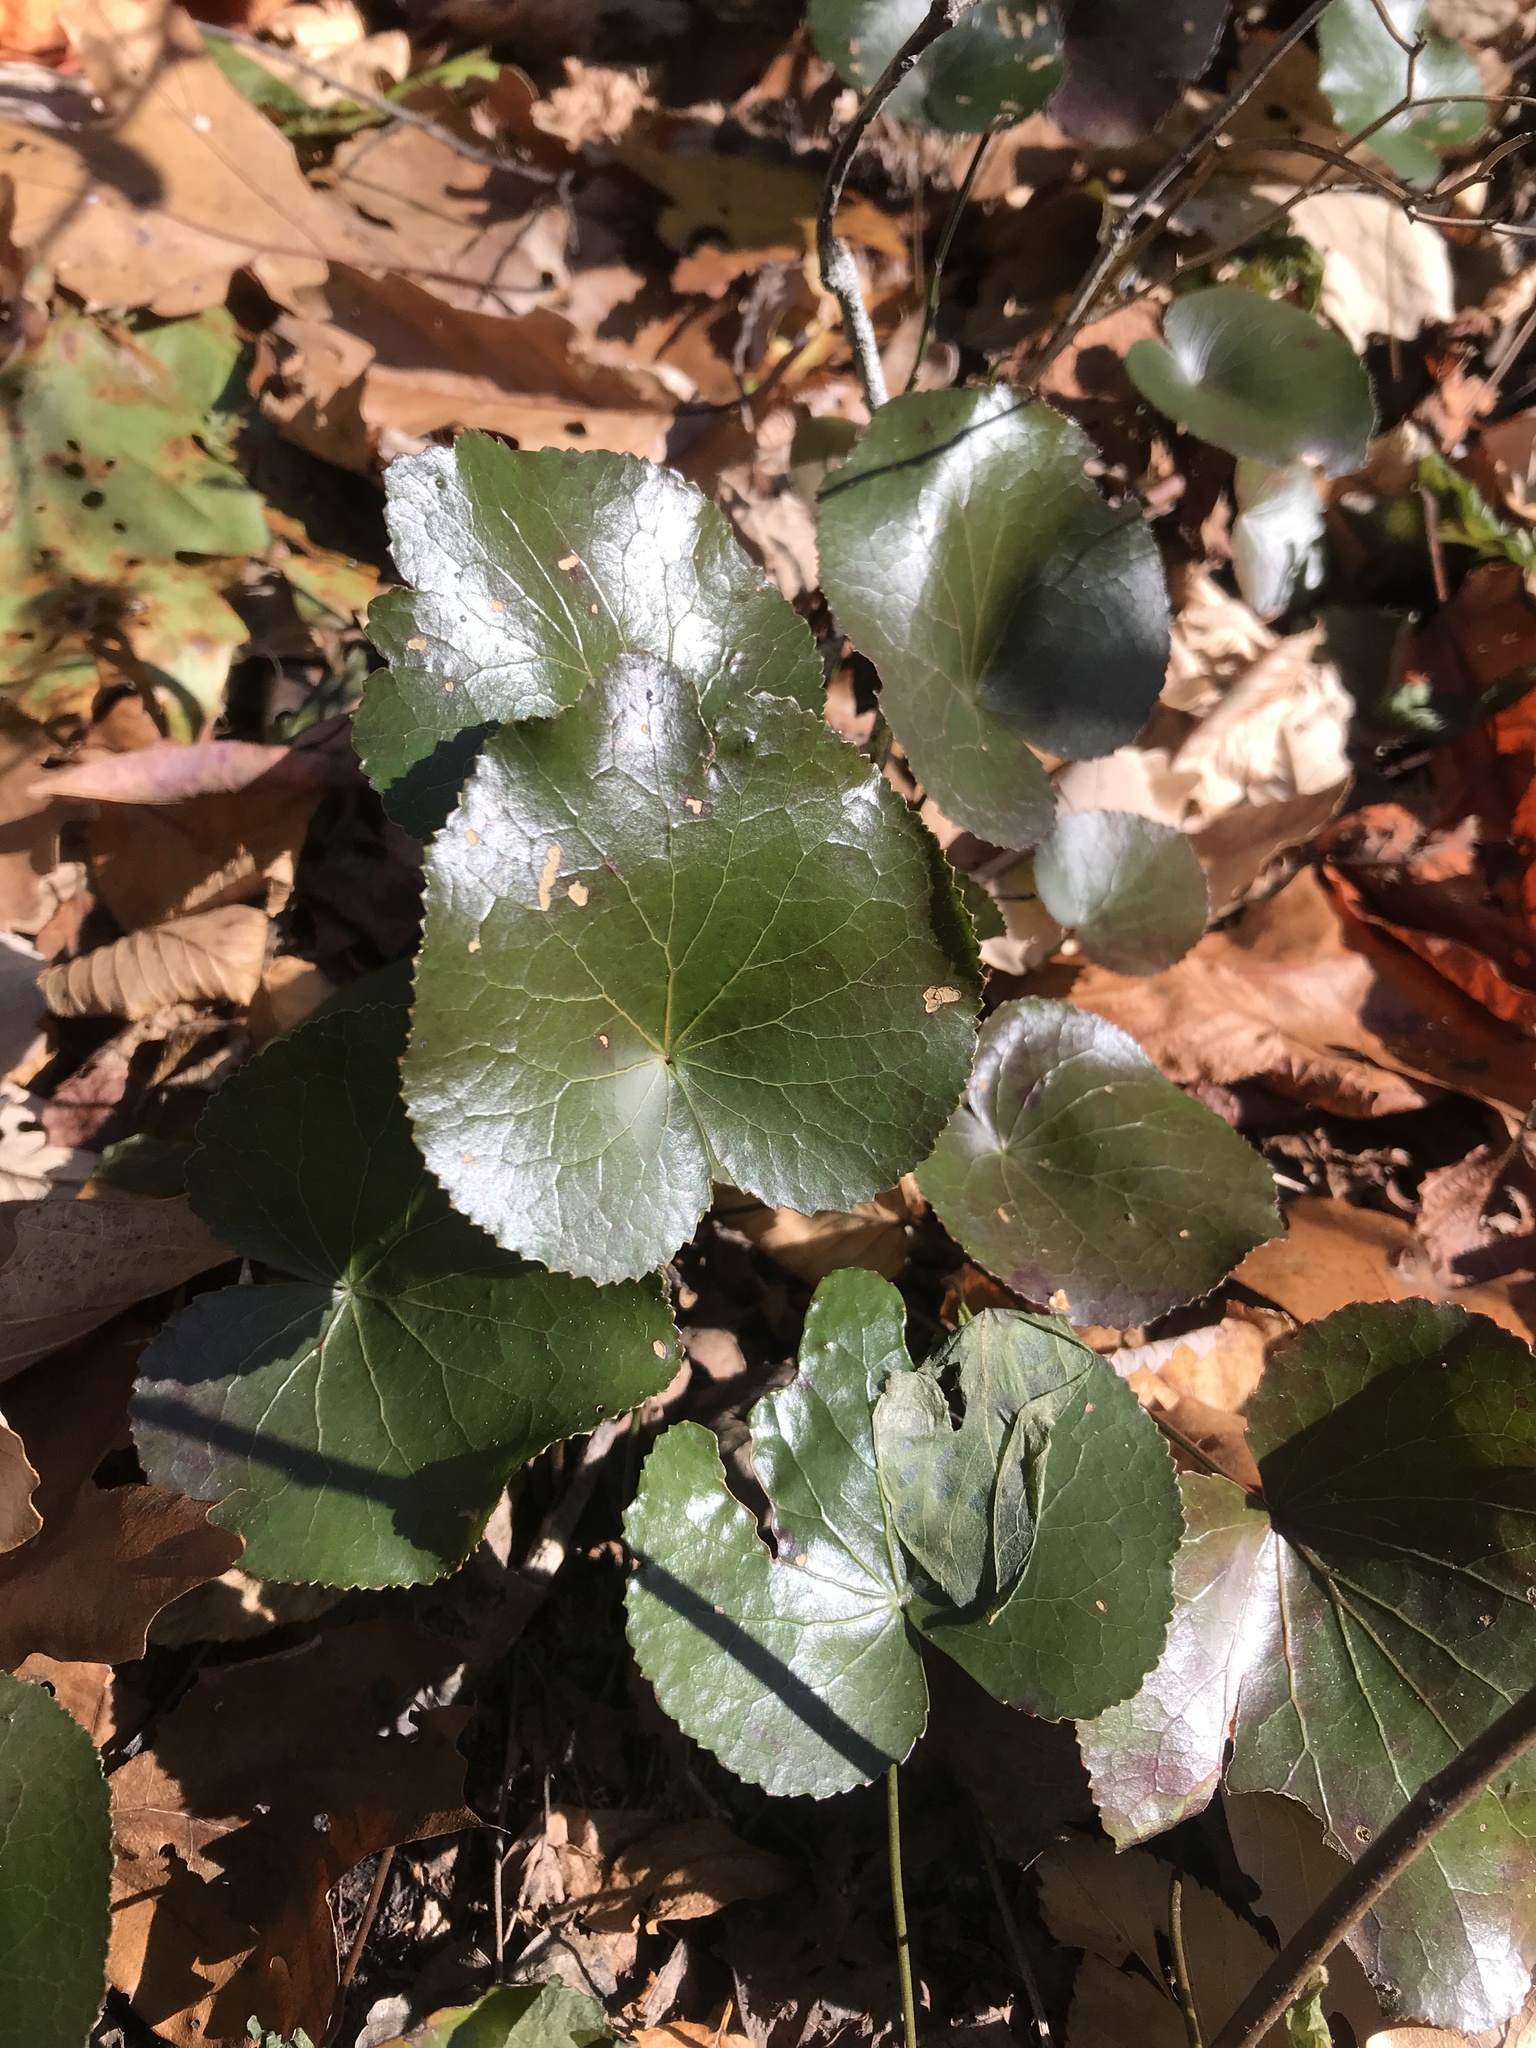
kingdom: Plantae
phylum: Tracheophyta
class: Magnoliopsida
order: Ericales
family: Diapensiaceae
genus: Galax
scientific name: Galax urceolata
